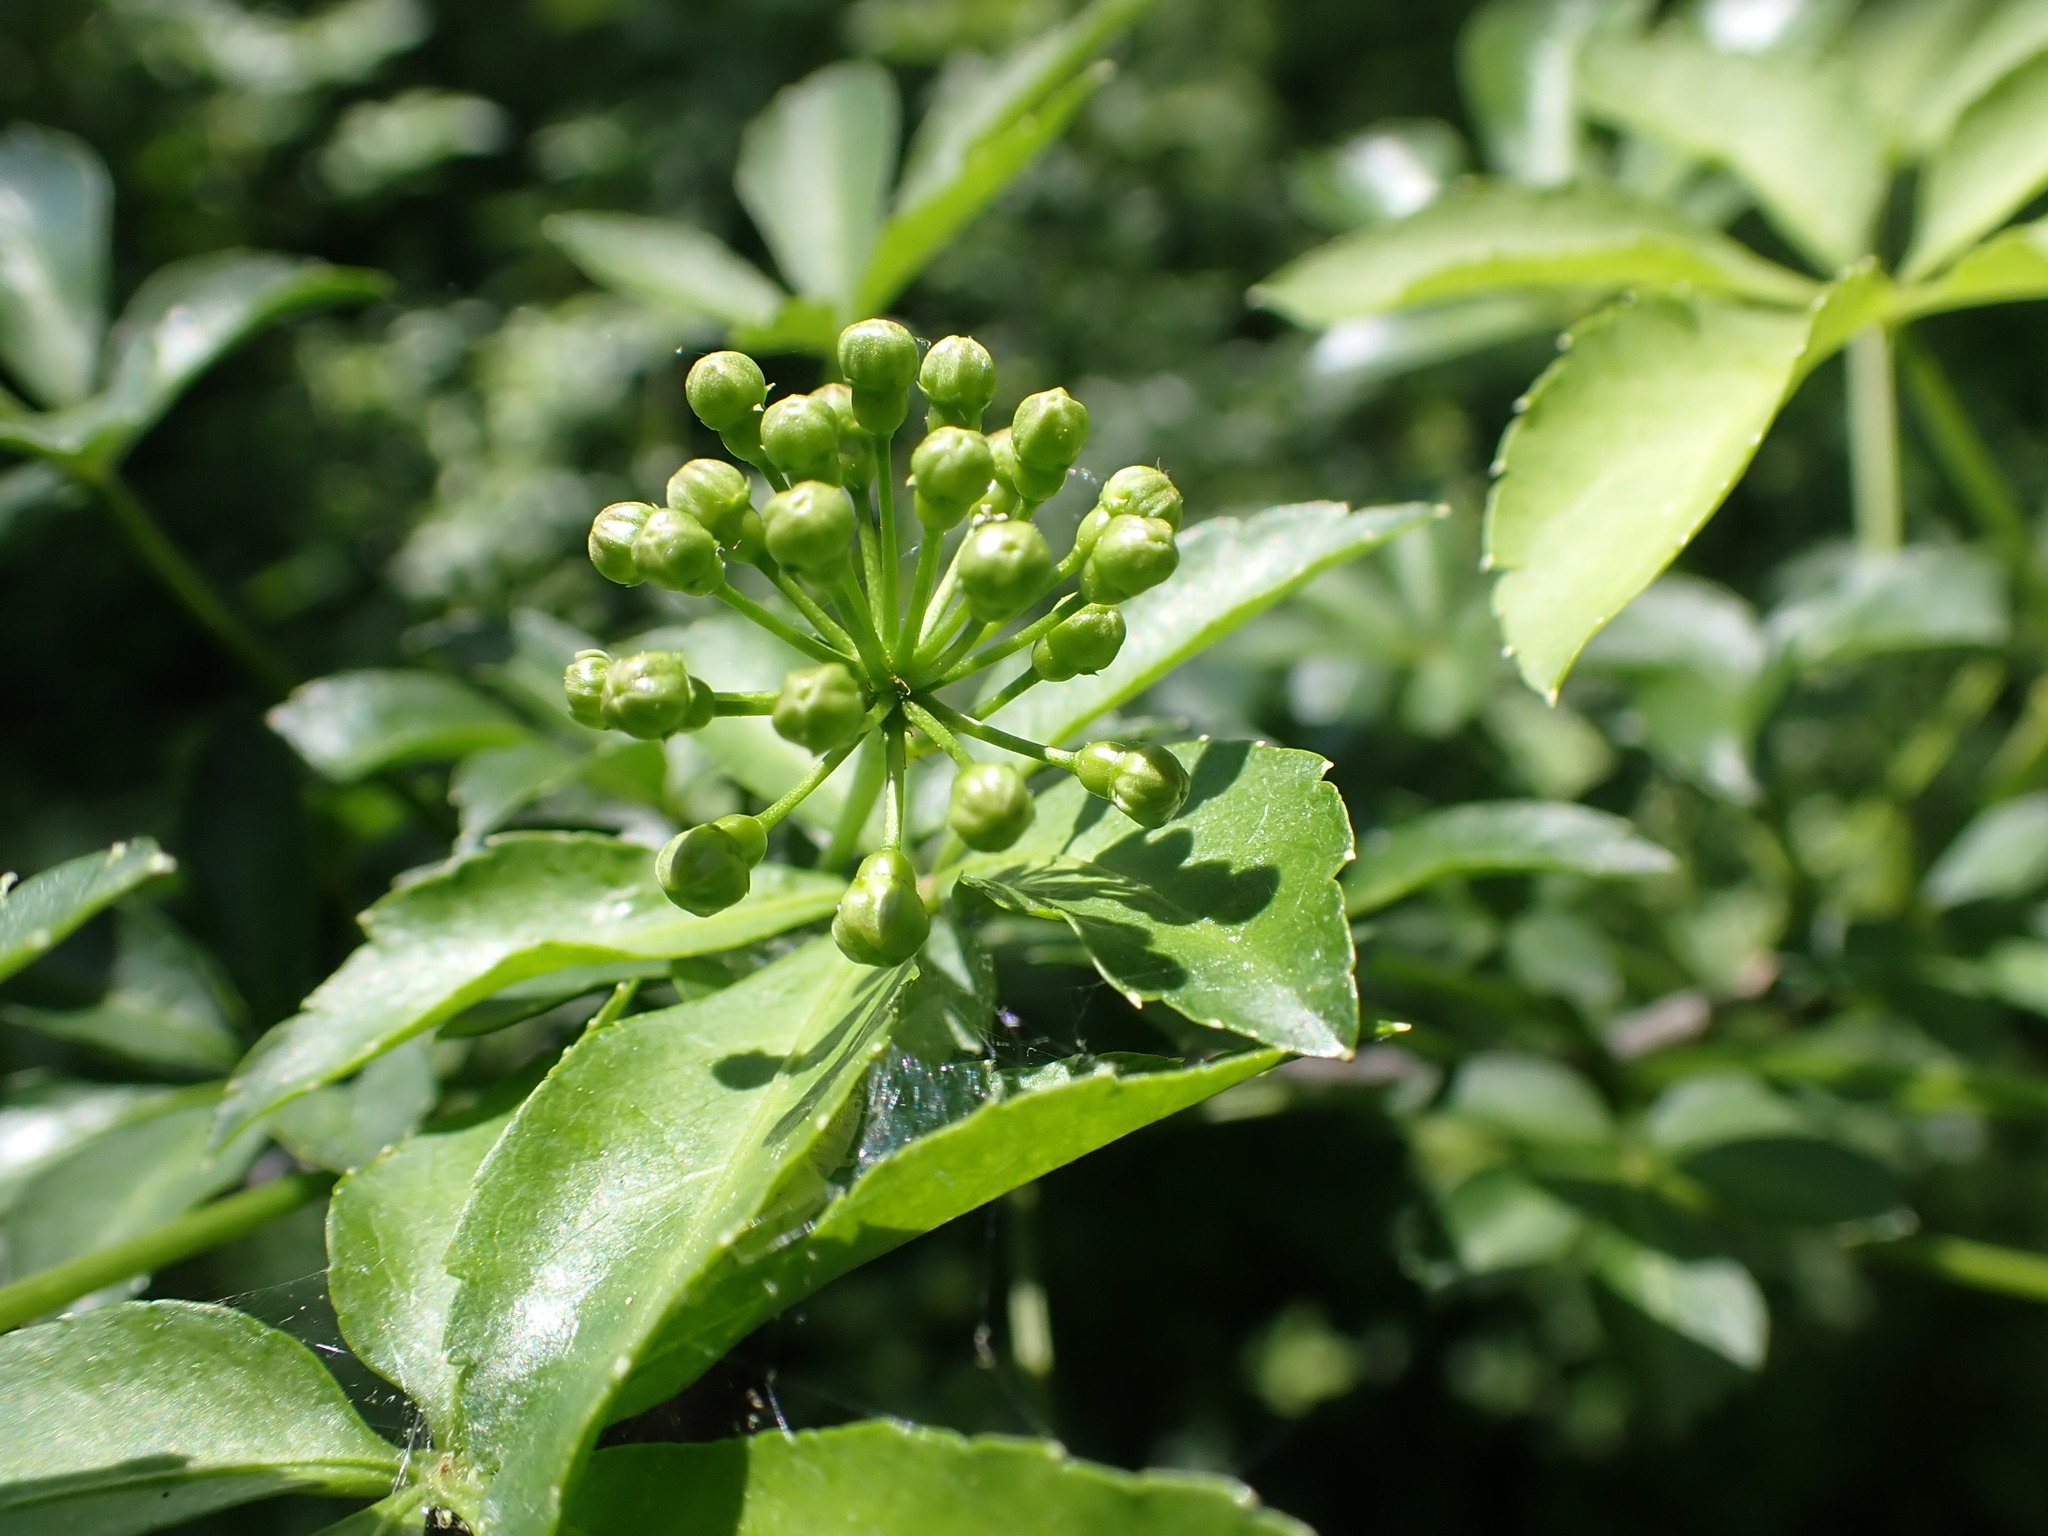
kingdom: Plantae
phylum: Tracheophyta
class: Magnoliopsida
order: Apiales
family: Araliaceae
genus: Eleutherococcus
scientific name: Eleutherococcus sieboldianus
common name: Ginseng
